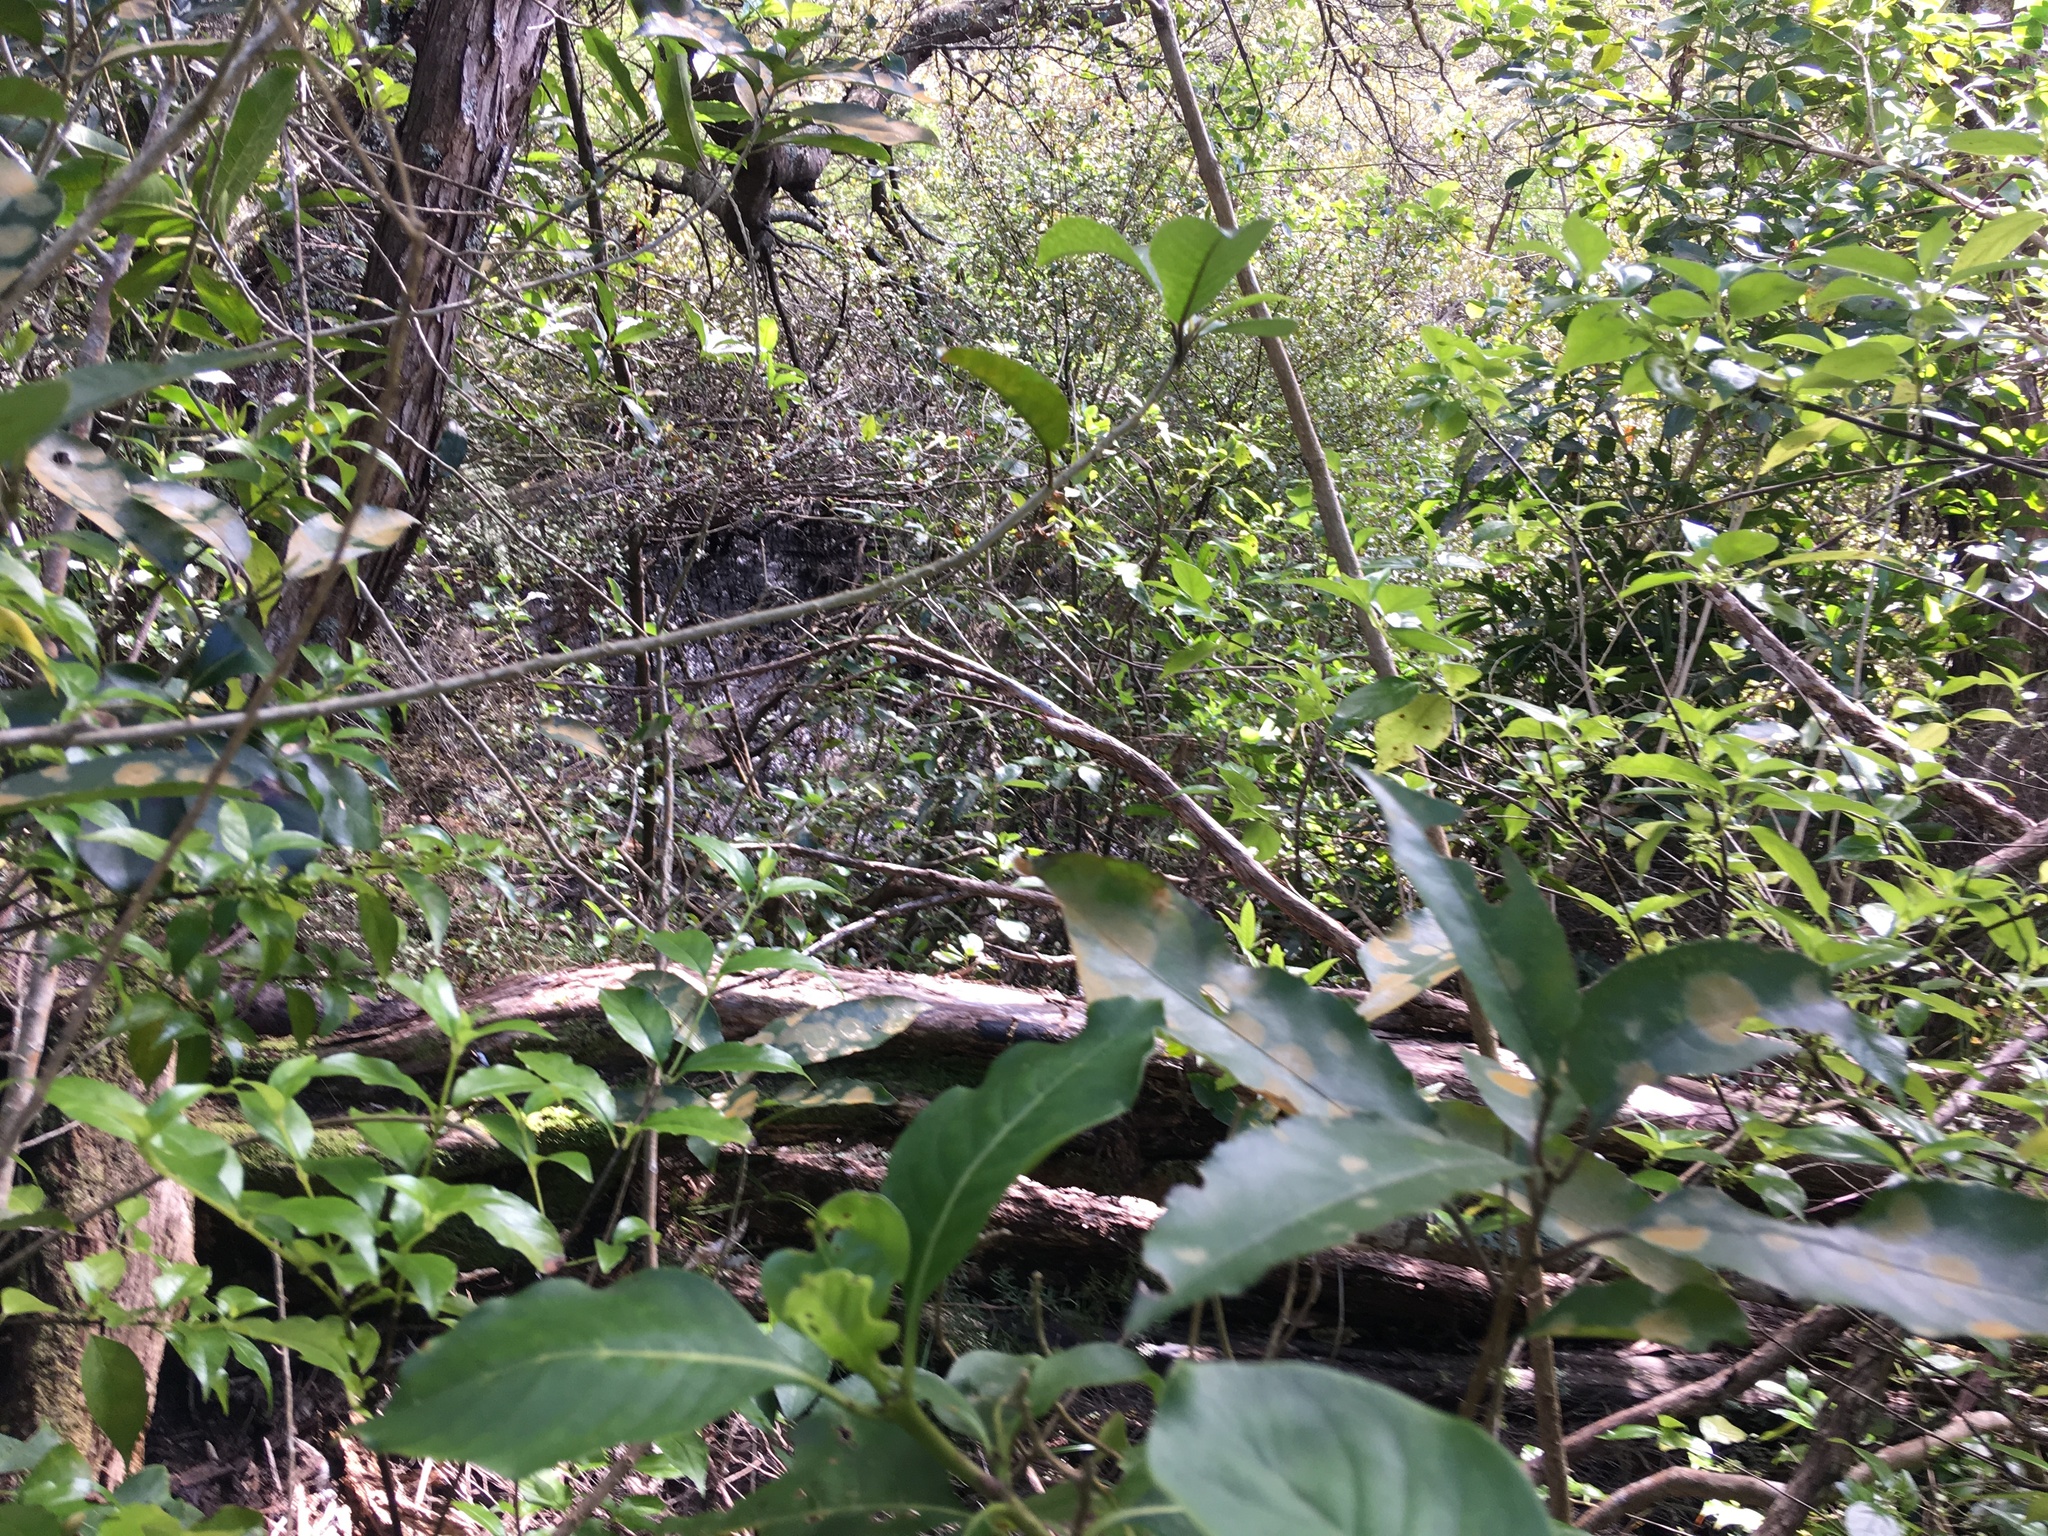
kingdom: Plantae
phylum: Tracheophyta
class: Magnoliopsida
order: Malpighiales
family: Violaceae
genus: Melicytus
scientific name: Melicytus ramiflorus
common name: Mahoe
